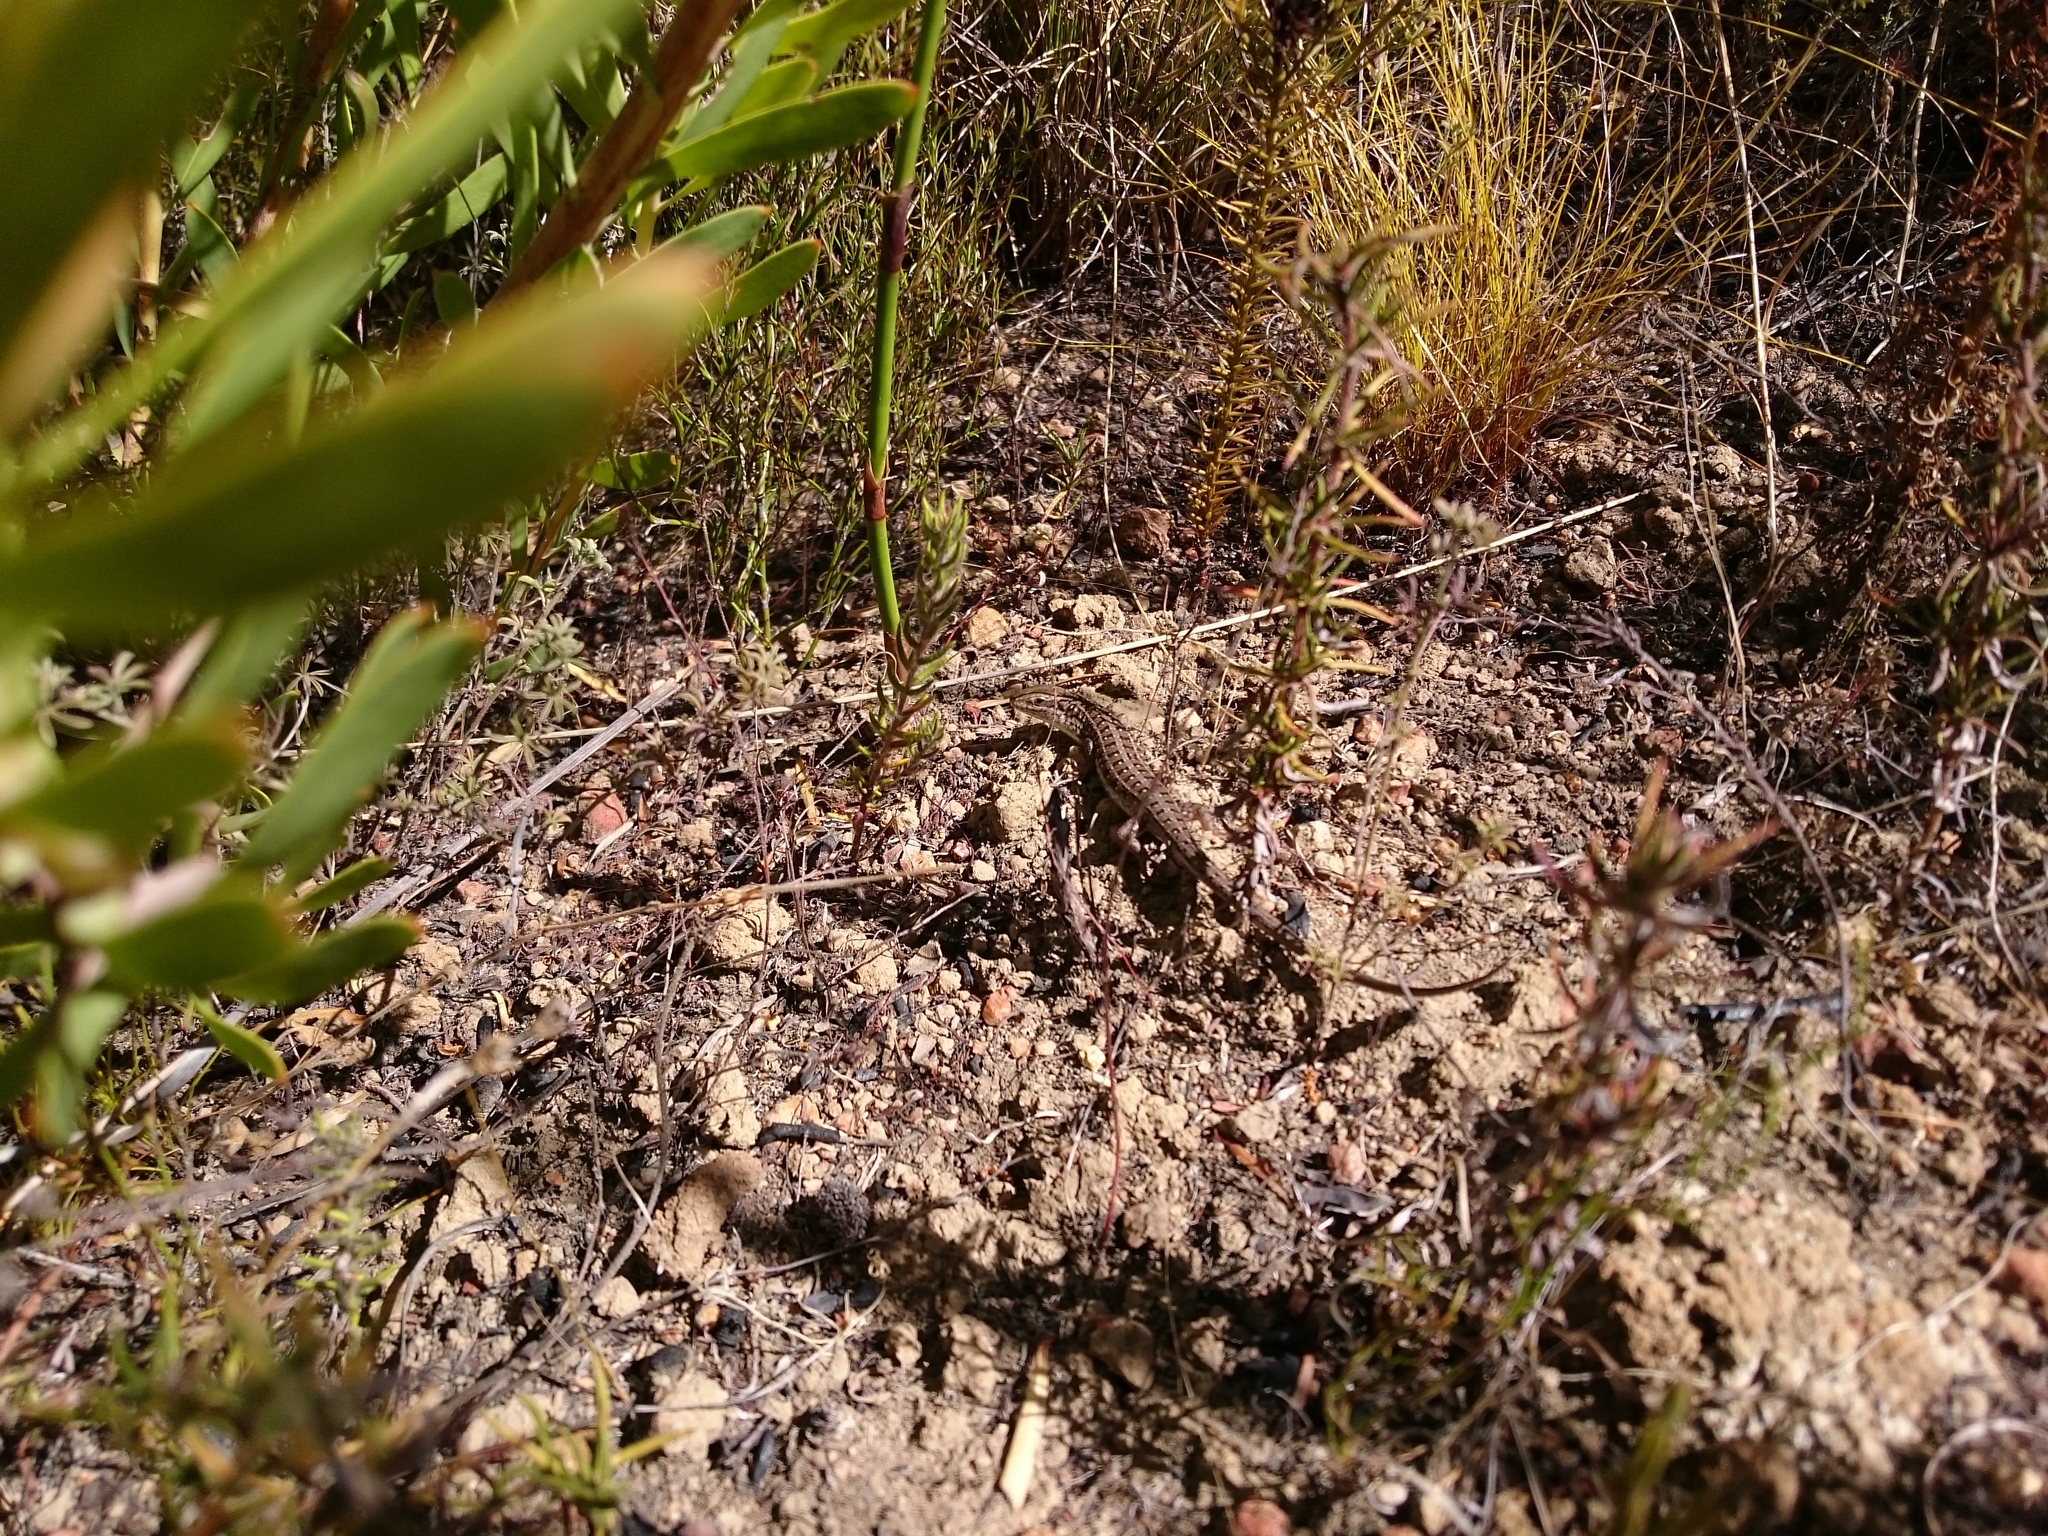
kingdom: Animalia
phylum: Chordata
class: Squamata
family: Scincidae
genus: Trachylepis
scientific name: Trachylepis capensis
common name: Cape skink
